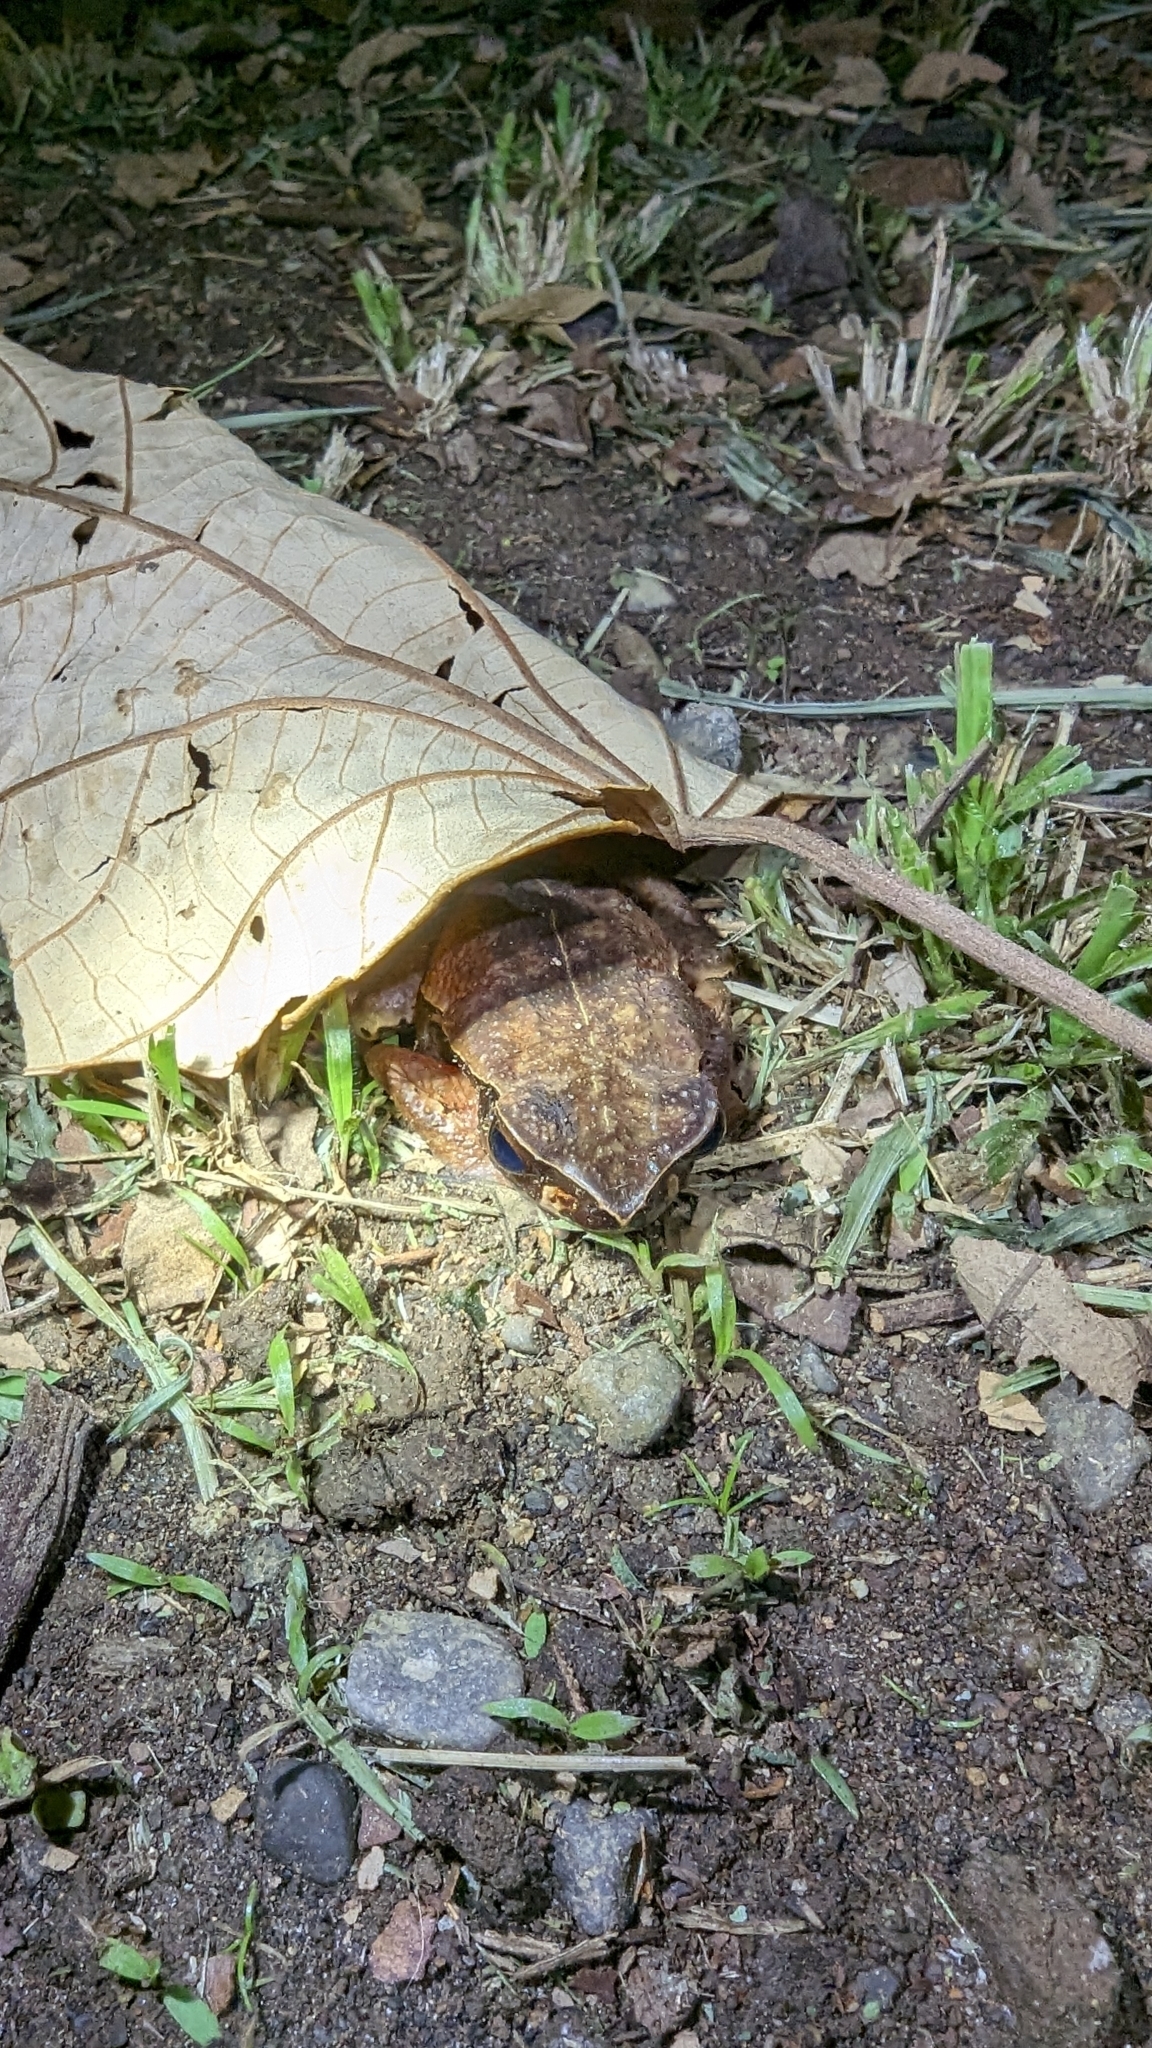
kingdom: Animalia
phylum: Chordata
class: Amphibia
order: Anura
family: Bufonidae
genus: Rhaebo
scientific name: Rhaebo haematiticus
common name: Truando toad
